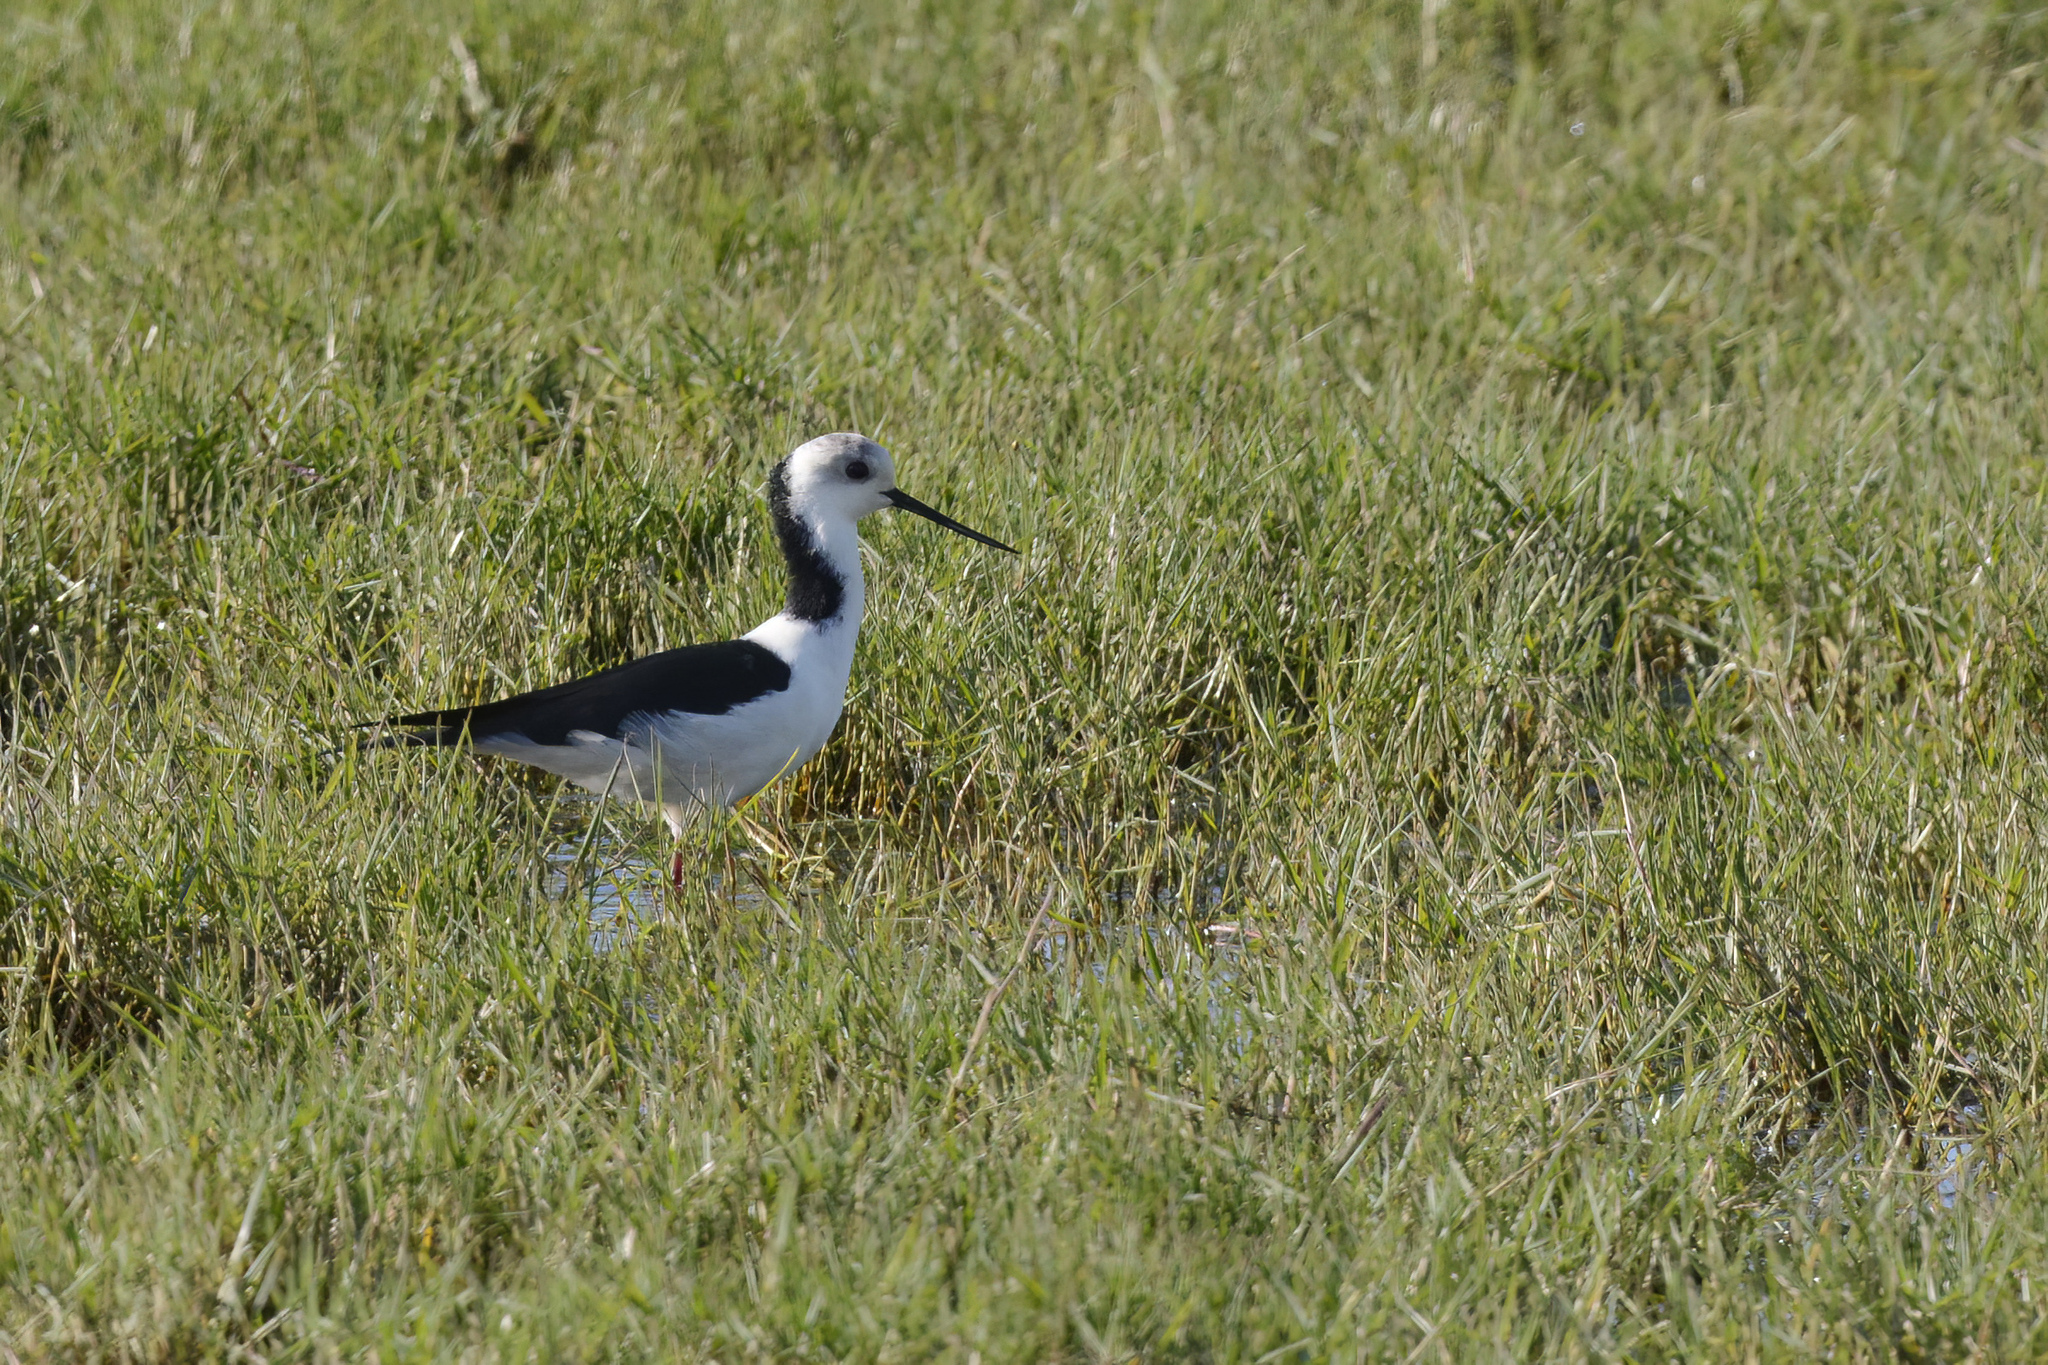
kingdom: Animalia
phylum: Chordata
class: Aves
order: Charadriiformes
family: Recurvirostridae
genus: Himantopus
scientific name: Himantopus leucocephalus
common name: White-headed stilt
